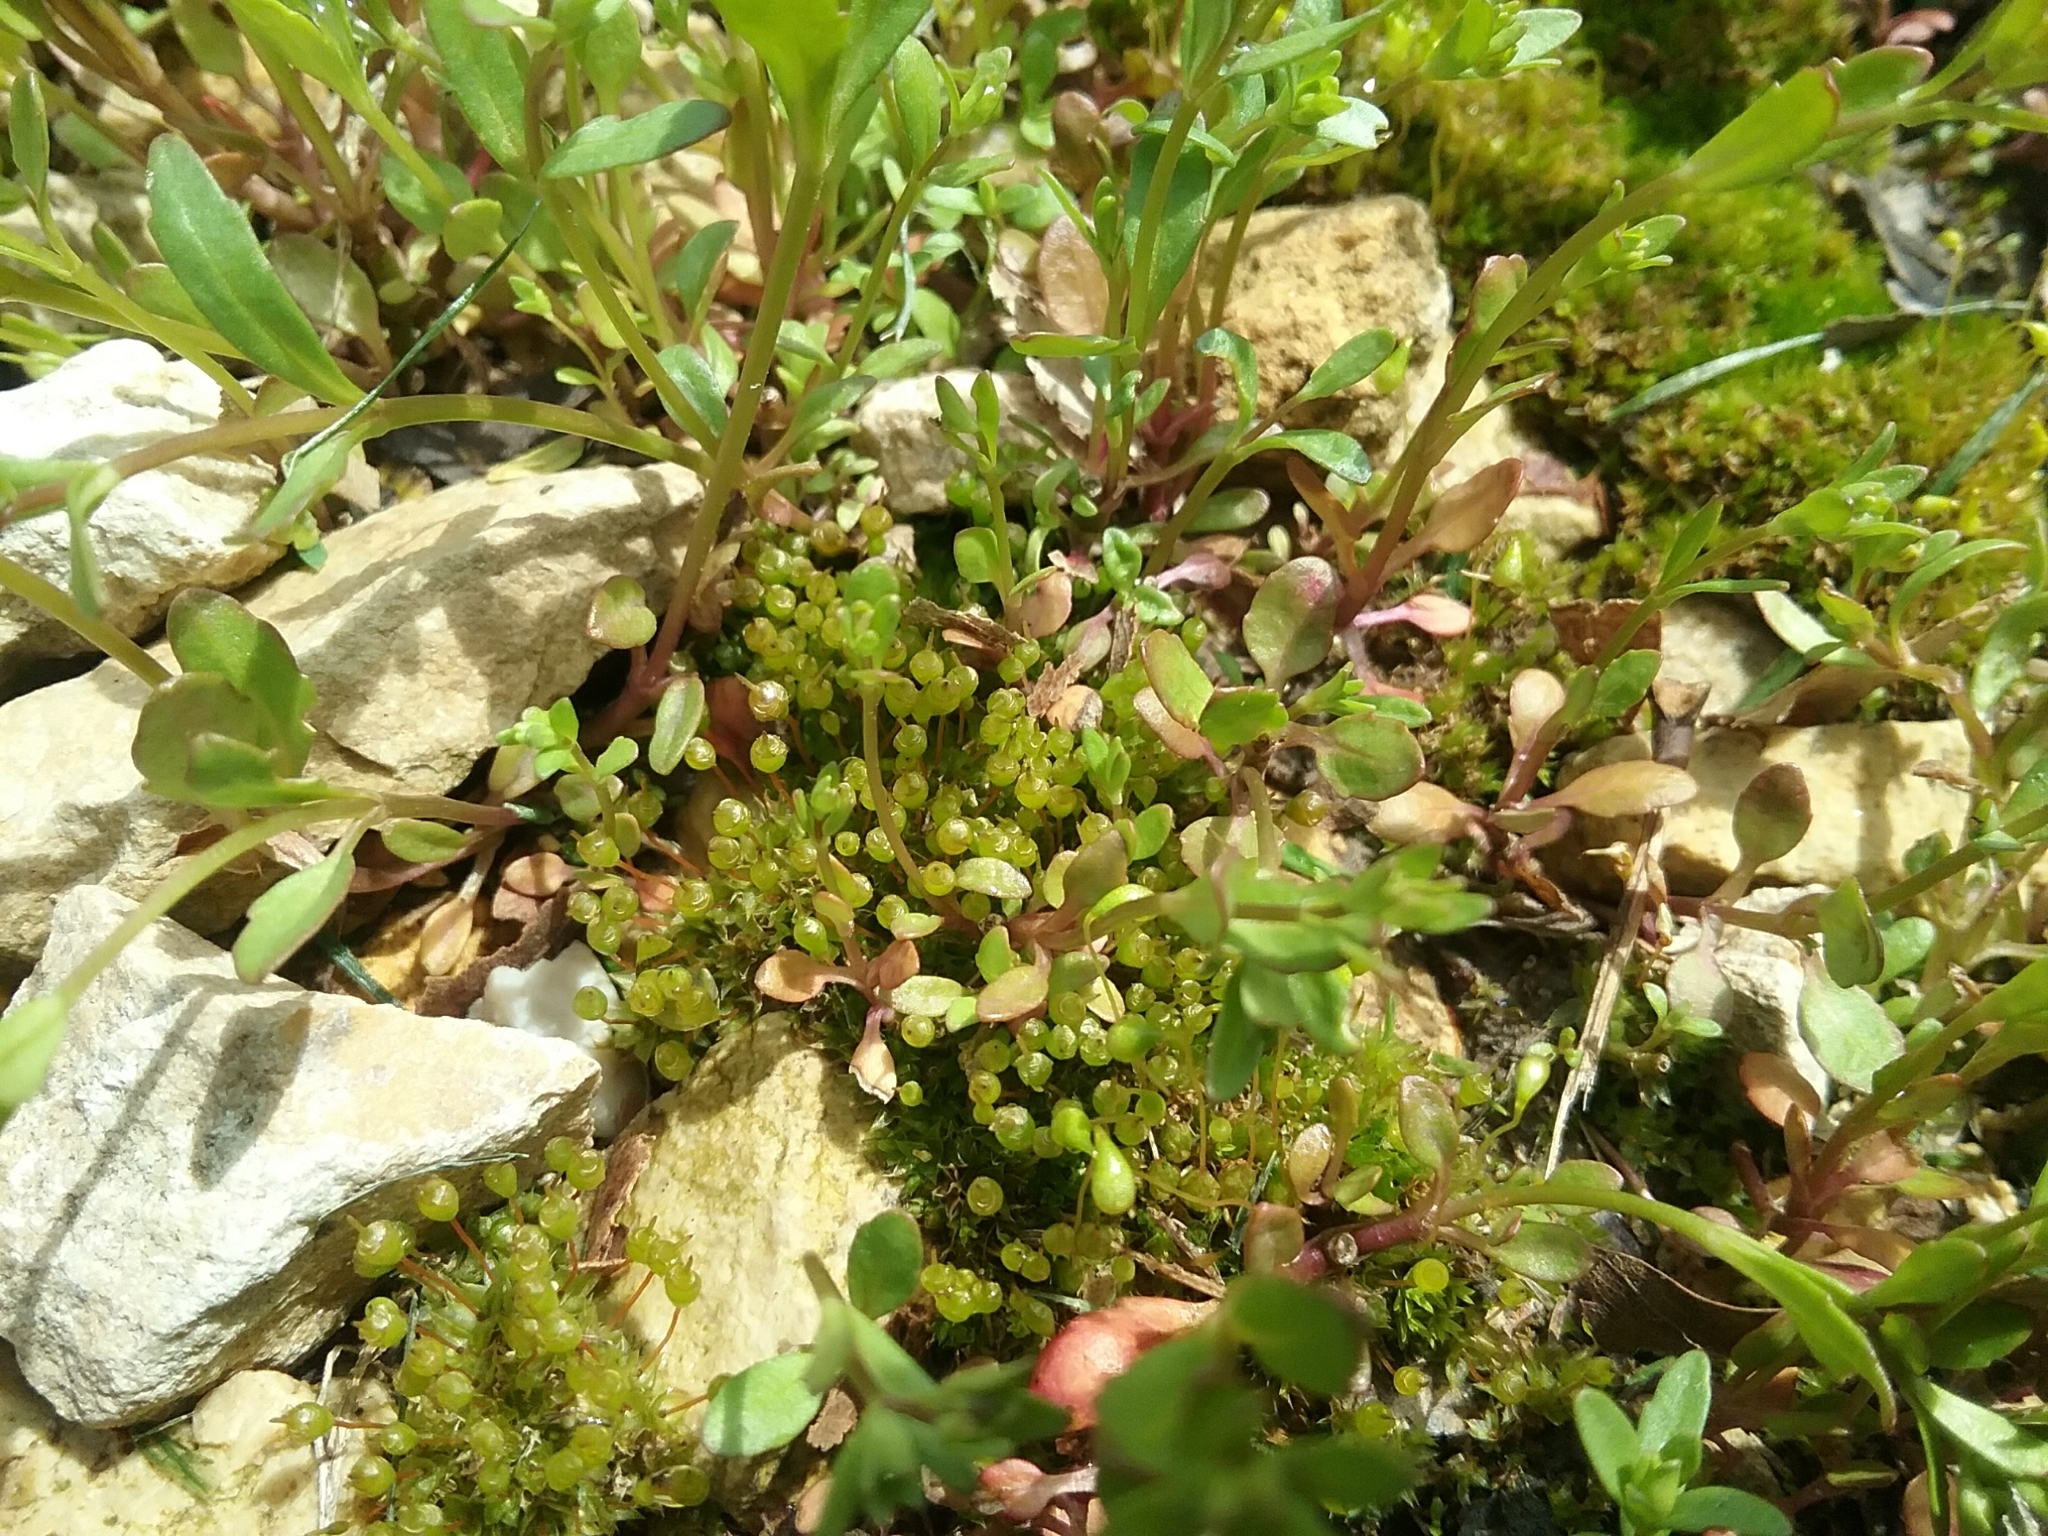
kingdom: Plantae
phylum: Bryophyta
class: Bryopsida
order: Funariales
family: Funariaceae
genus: Physcomitrium
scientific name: Physcomitrium pyriforme
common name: Common bladder-moss
